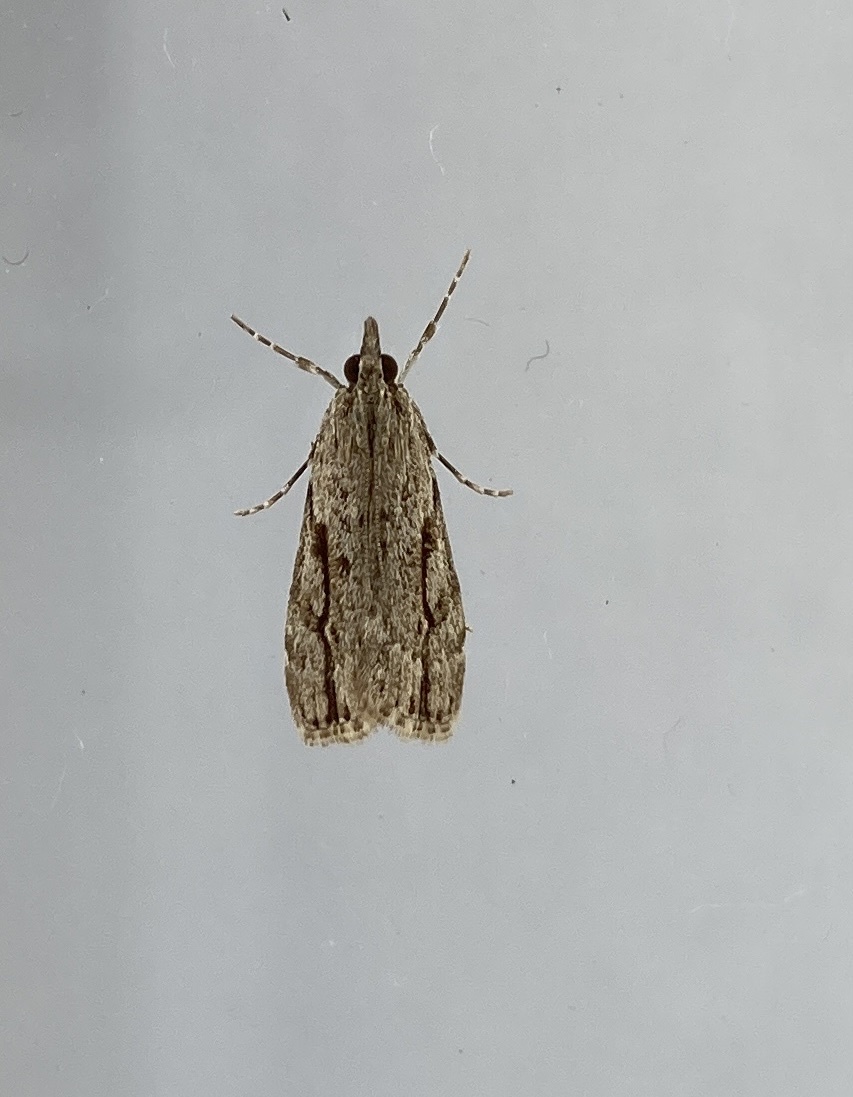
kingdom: Animalia
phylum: Arthropoda
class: Insecta
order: Lepidoptera
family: Crambidae
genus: Eudonia
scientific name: Eudonia bisinualis
